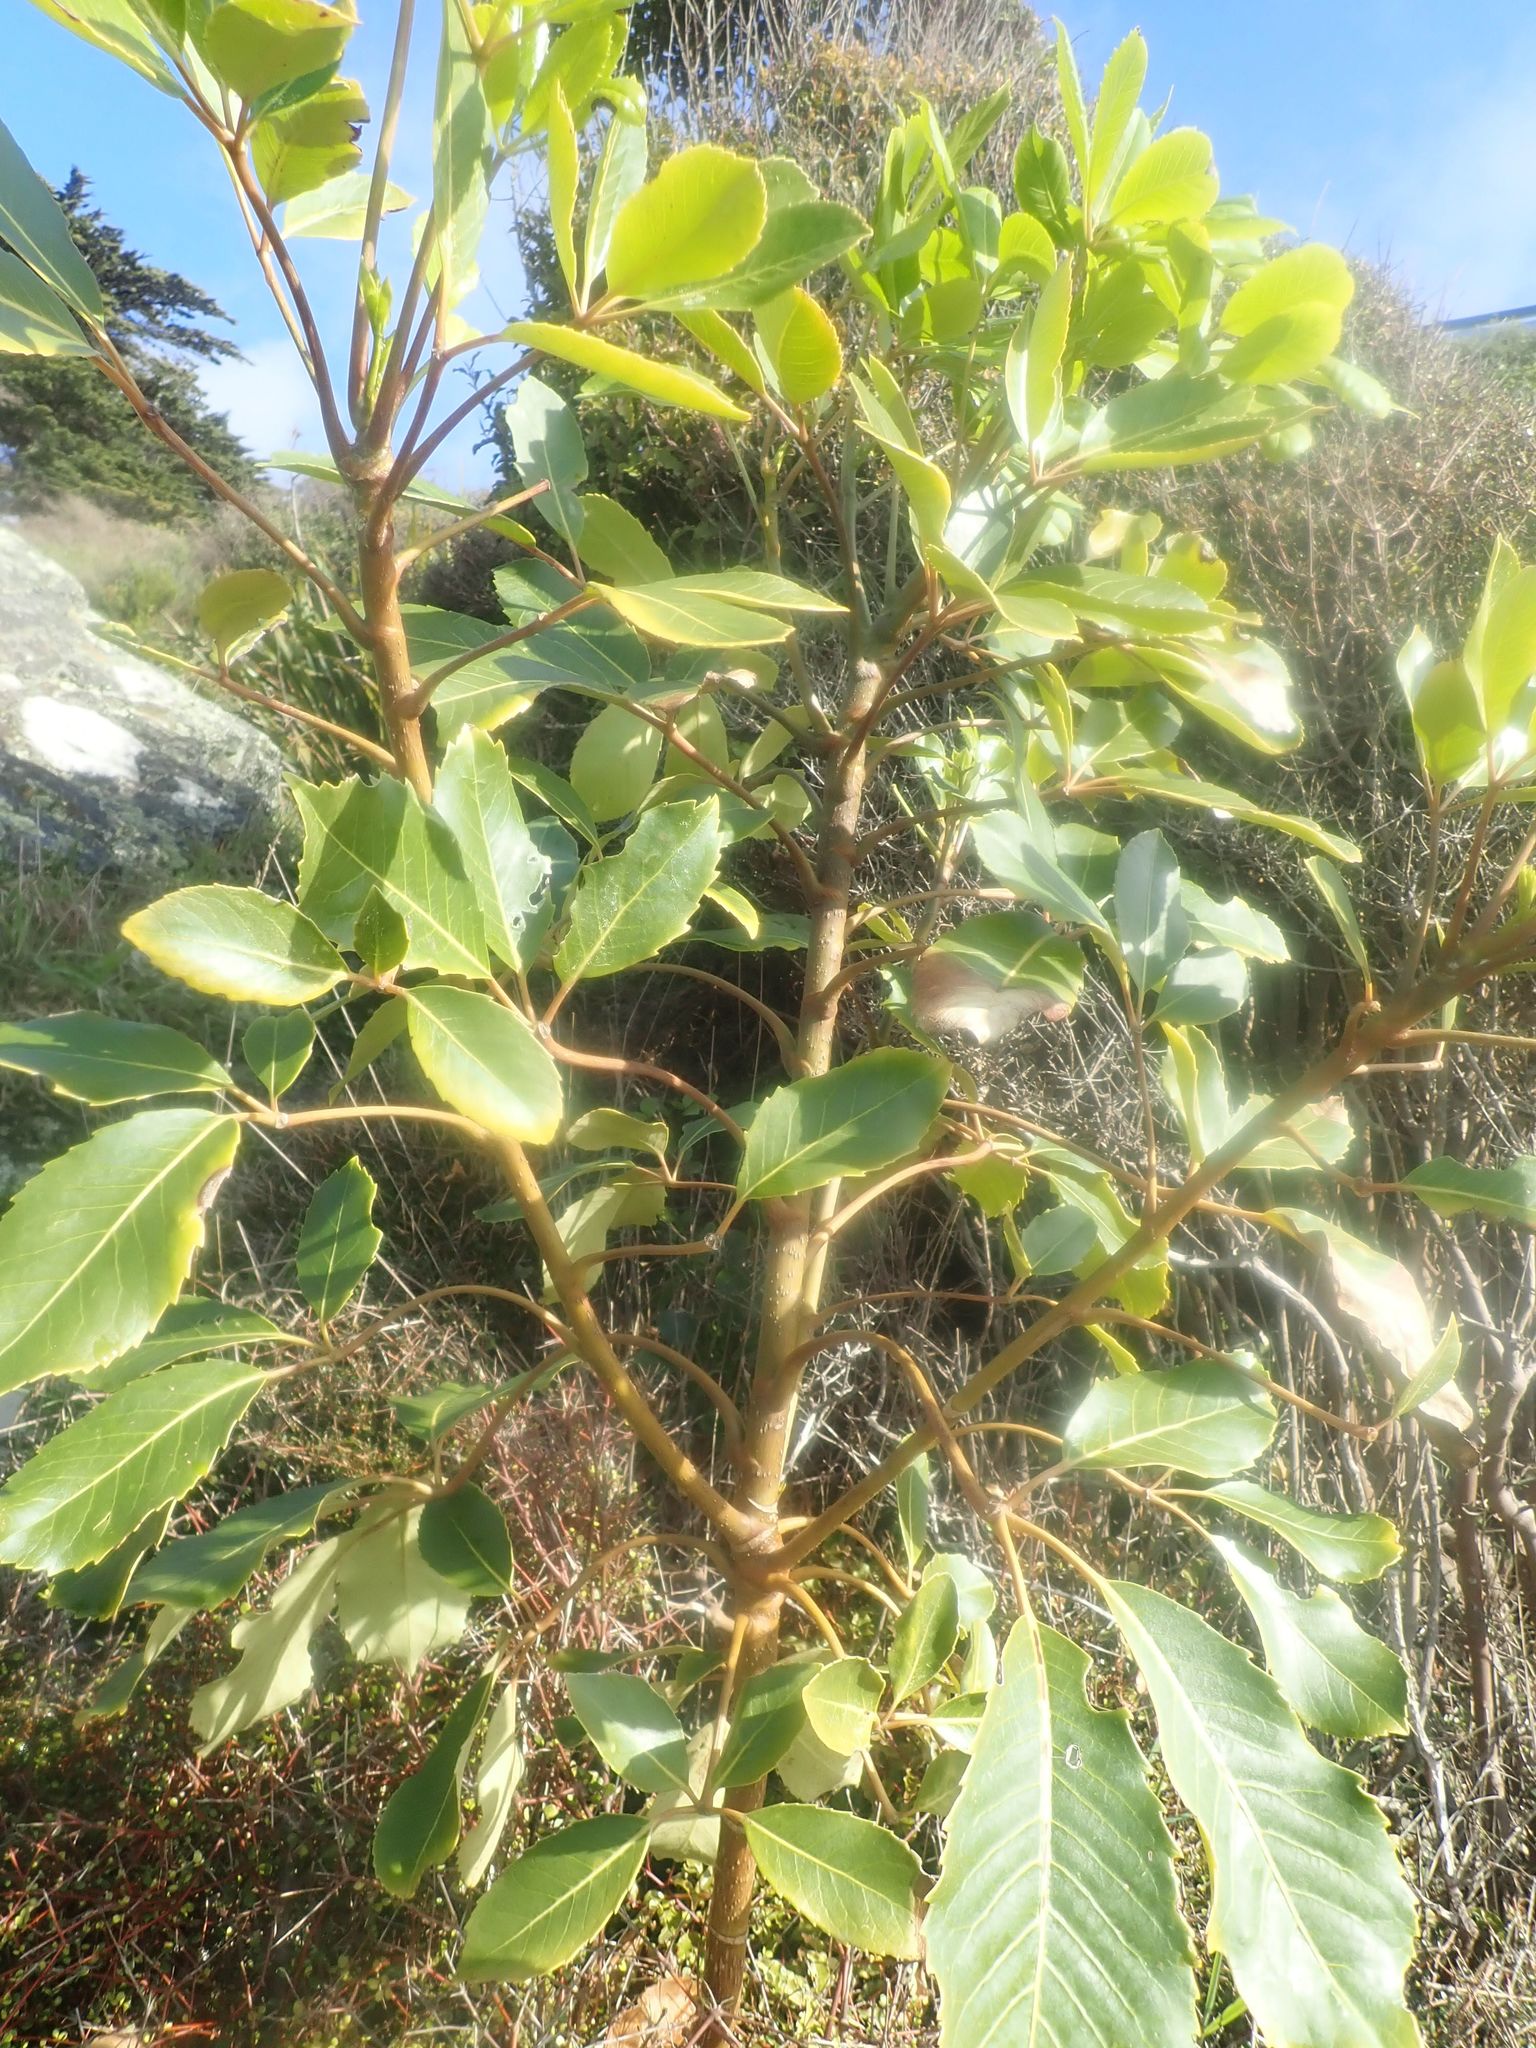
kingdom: Plantae
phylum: Tracheophyta
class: Magnoliopsida
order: Apiales
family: Araliaceae
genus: Neopanax
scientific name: Neopanax arboreus
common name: Five-fingers
